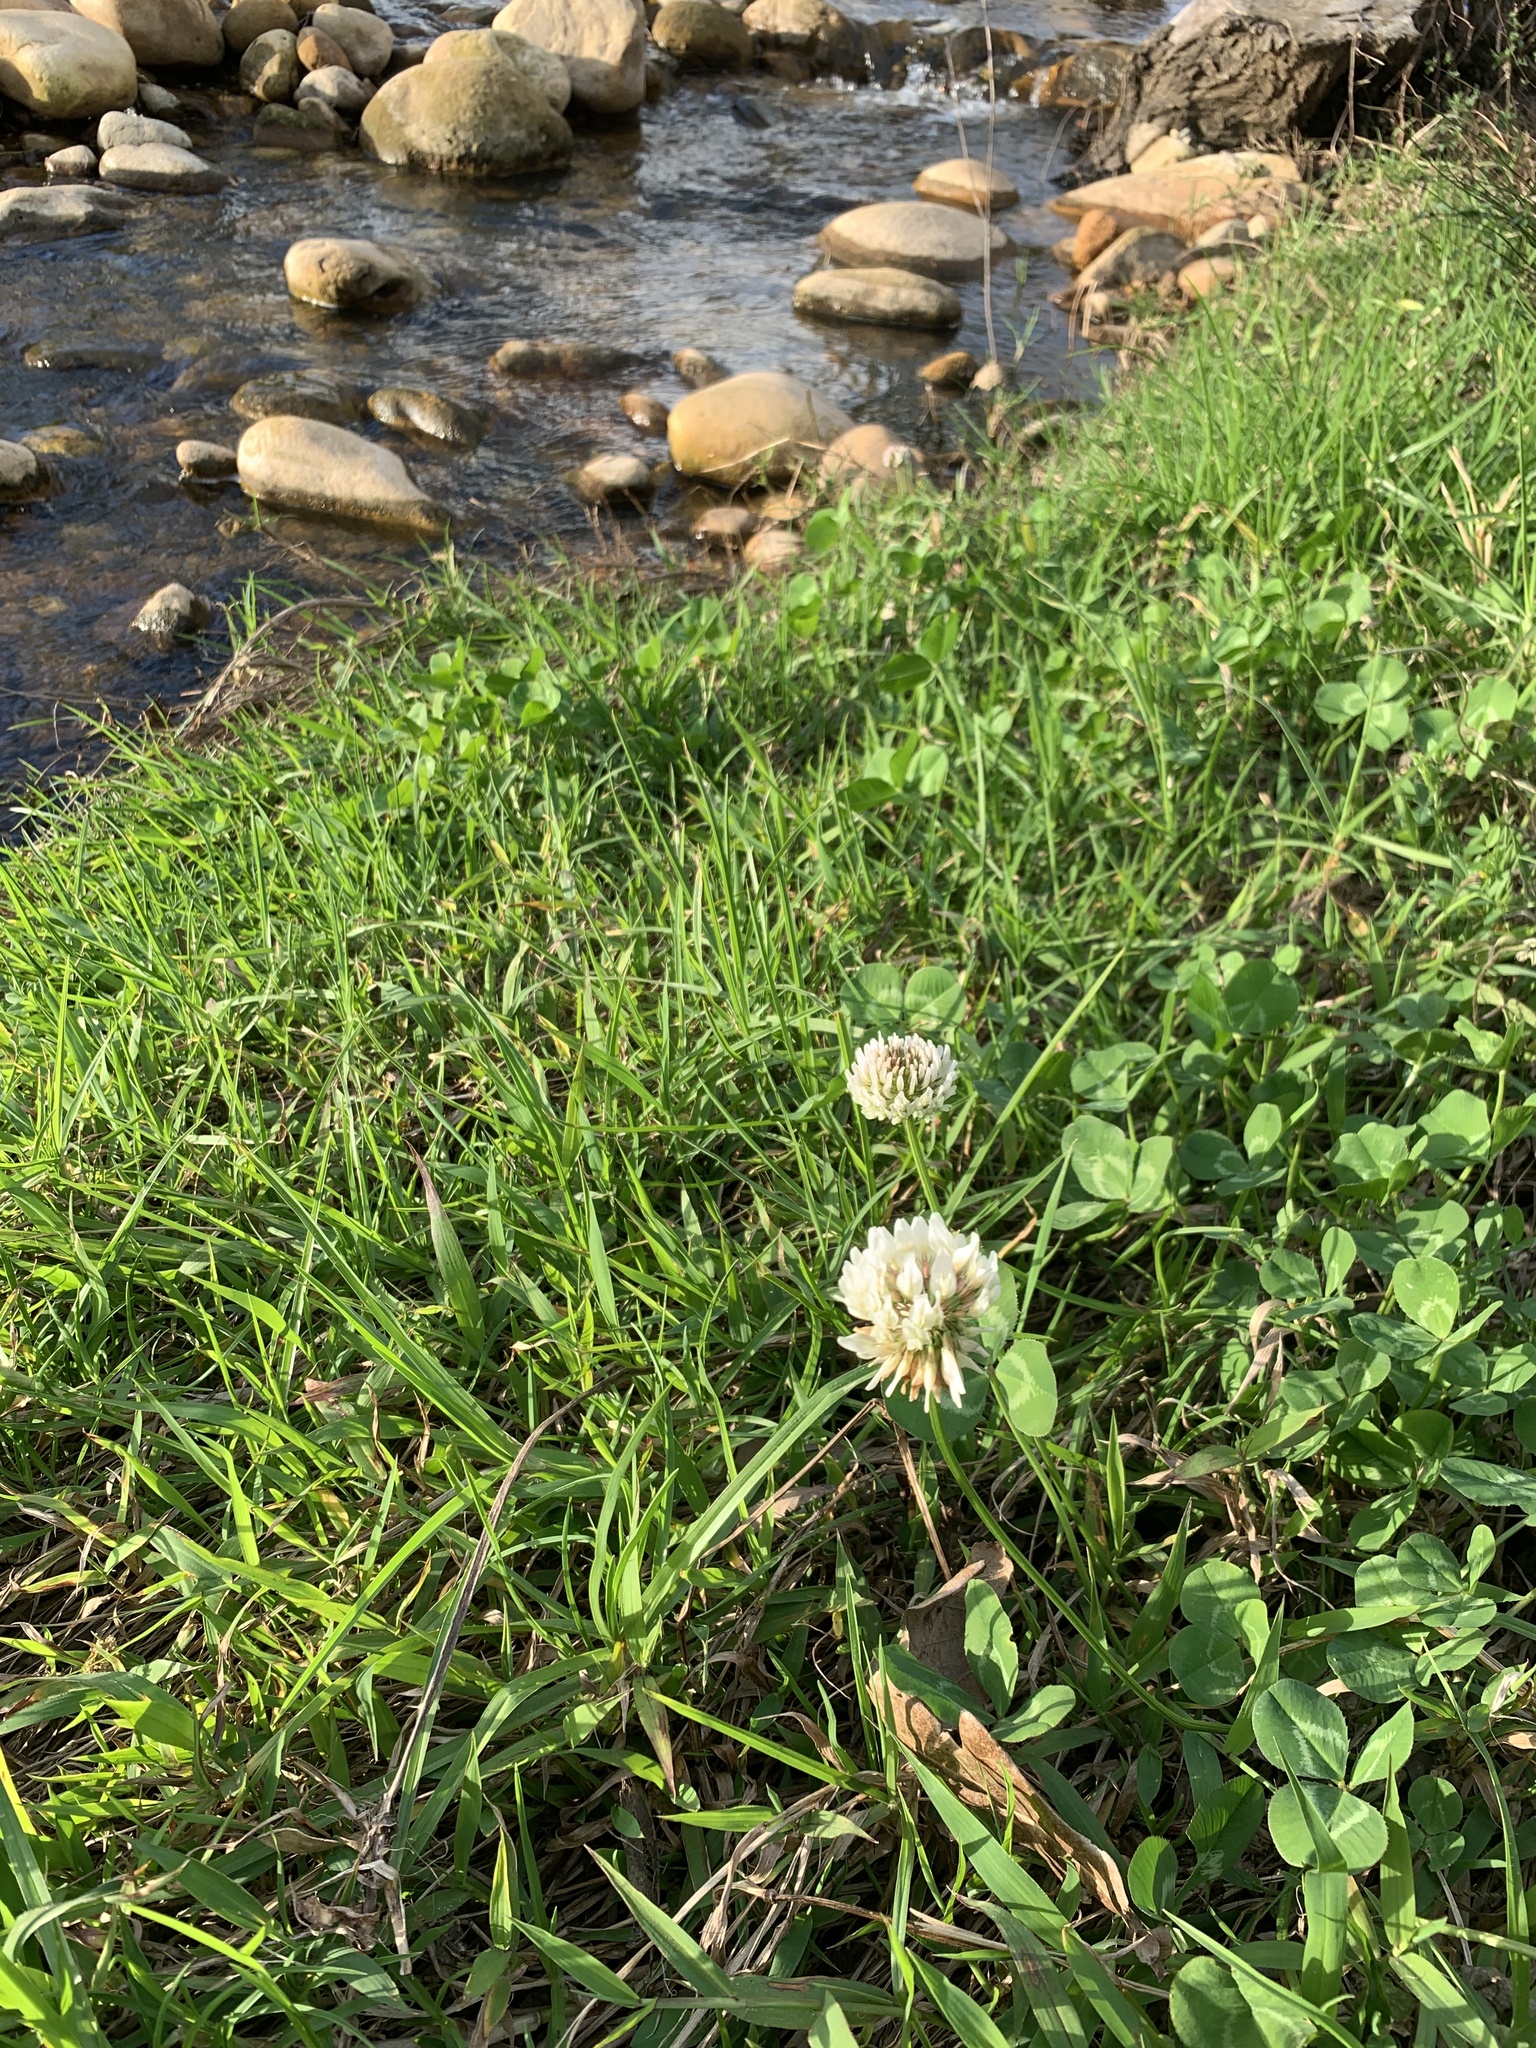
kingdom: Plantae
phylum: Tracheophyta
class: Magnoliopsida
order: Fabales
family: Fabaceae
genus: Trifolium
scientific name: Trifolium repens
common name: White clover
